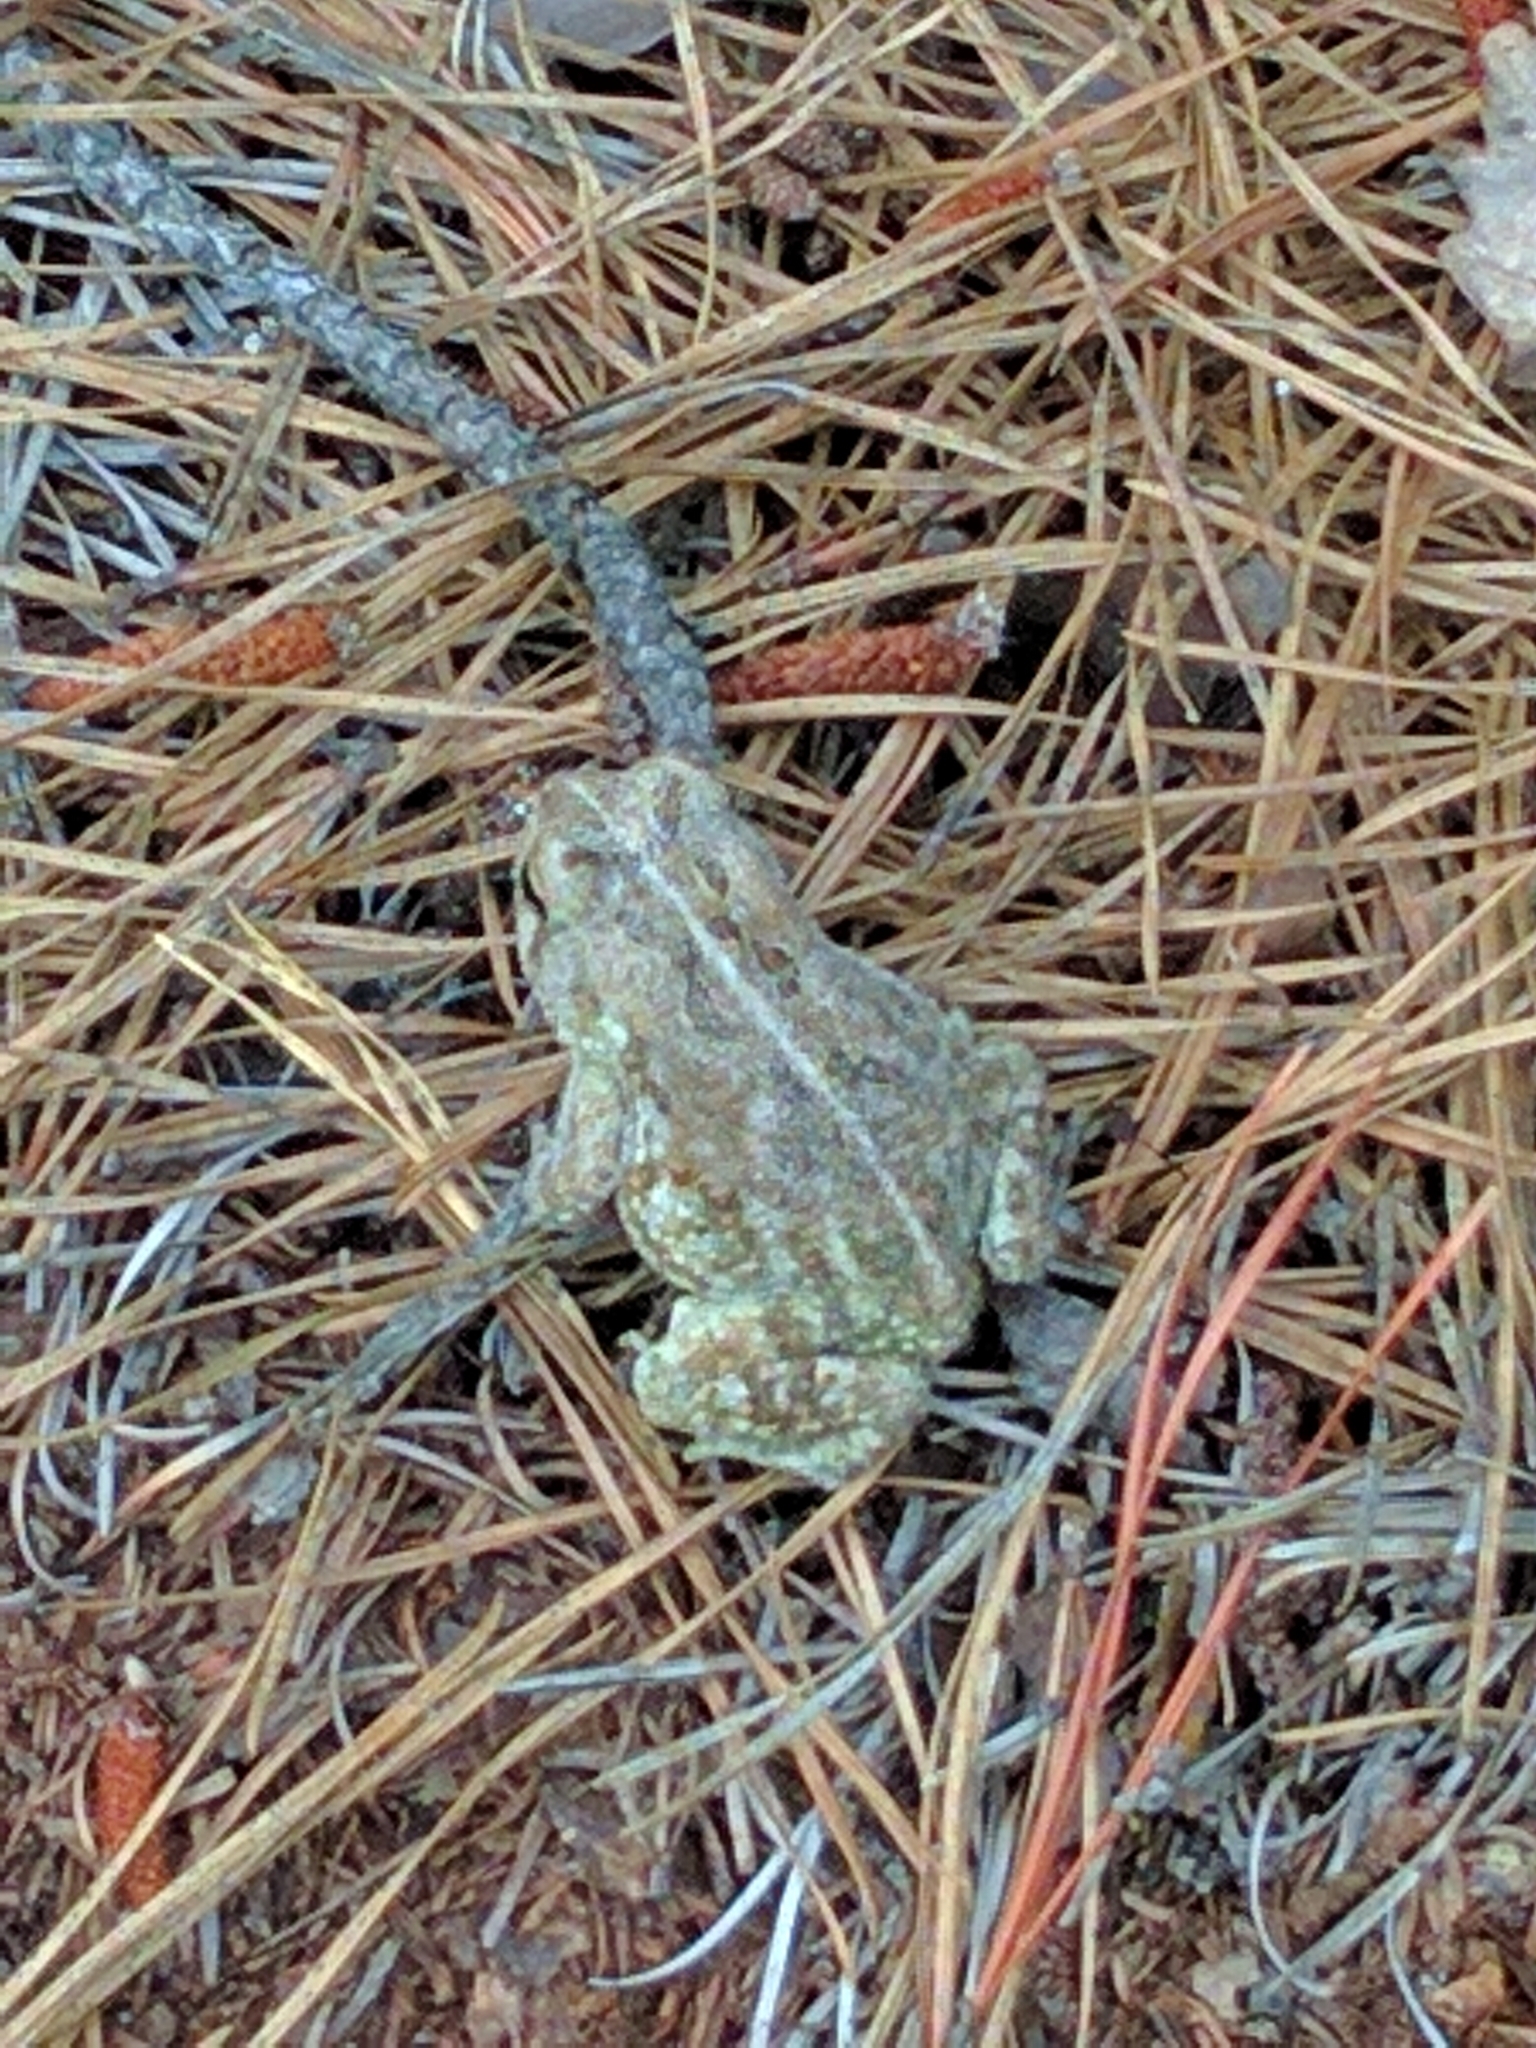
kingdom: Animalia
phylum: Chordata
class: Amphibia
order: Anura
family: Bufonidae
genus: Anaxyrus
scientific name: Anaxyrus fowleri
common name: Fowler's toad
